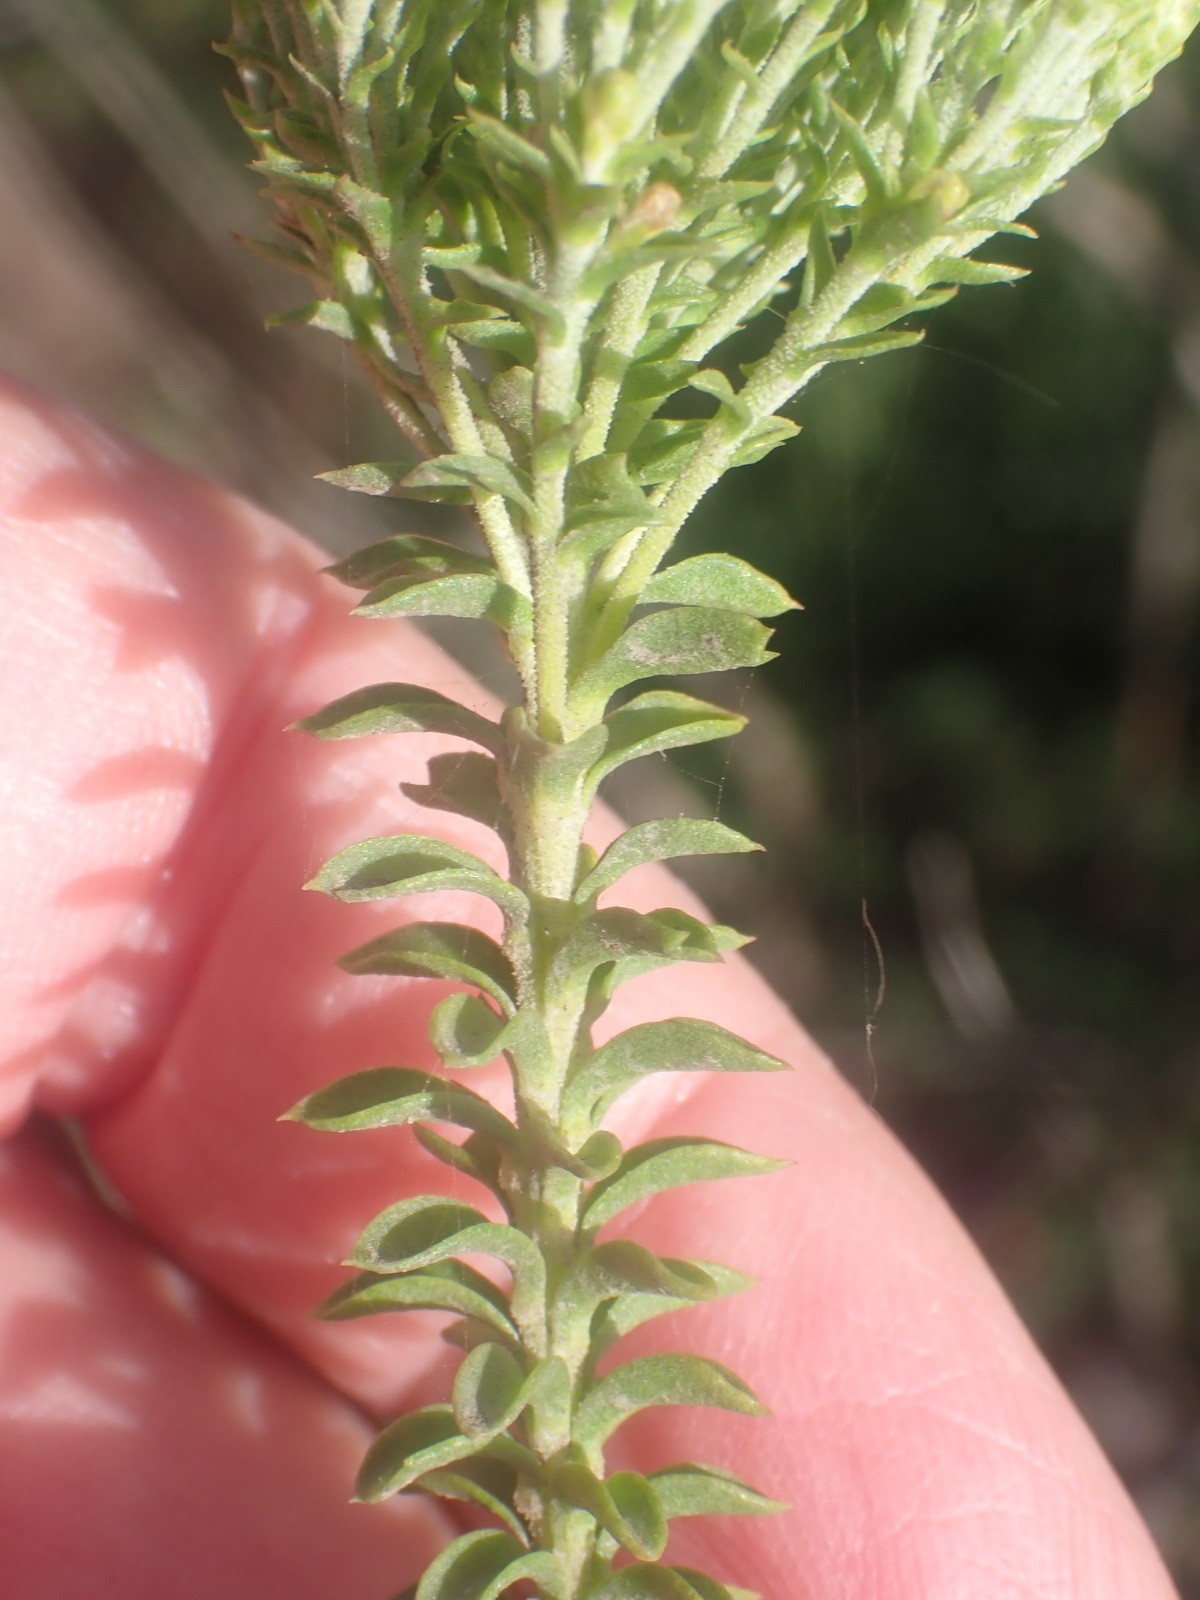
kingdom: Plantae
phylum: Tracheophyta
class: Magnoliopsida
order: Asterales
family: Asteraceae
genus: Athanasia
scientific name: Athanasia quinquedentata
